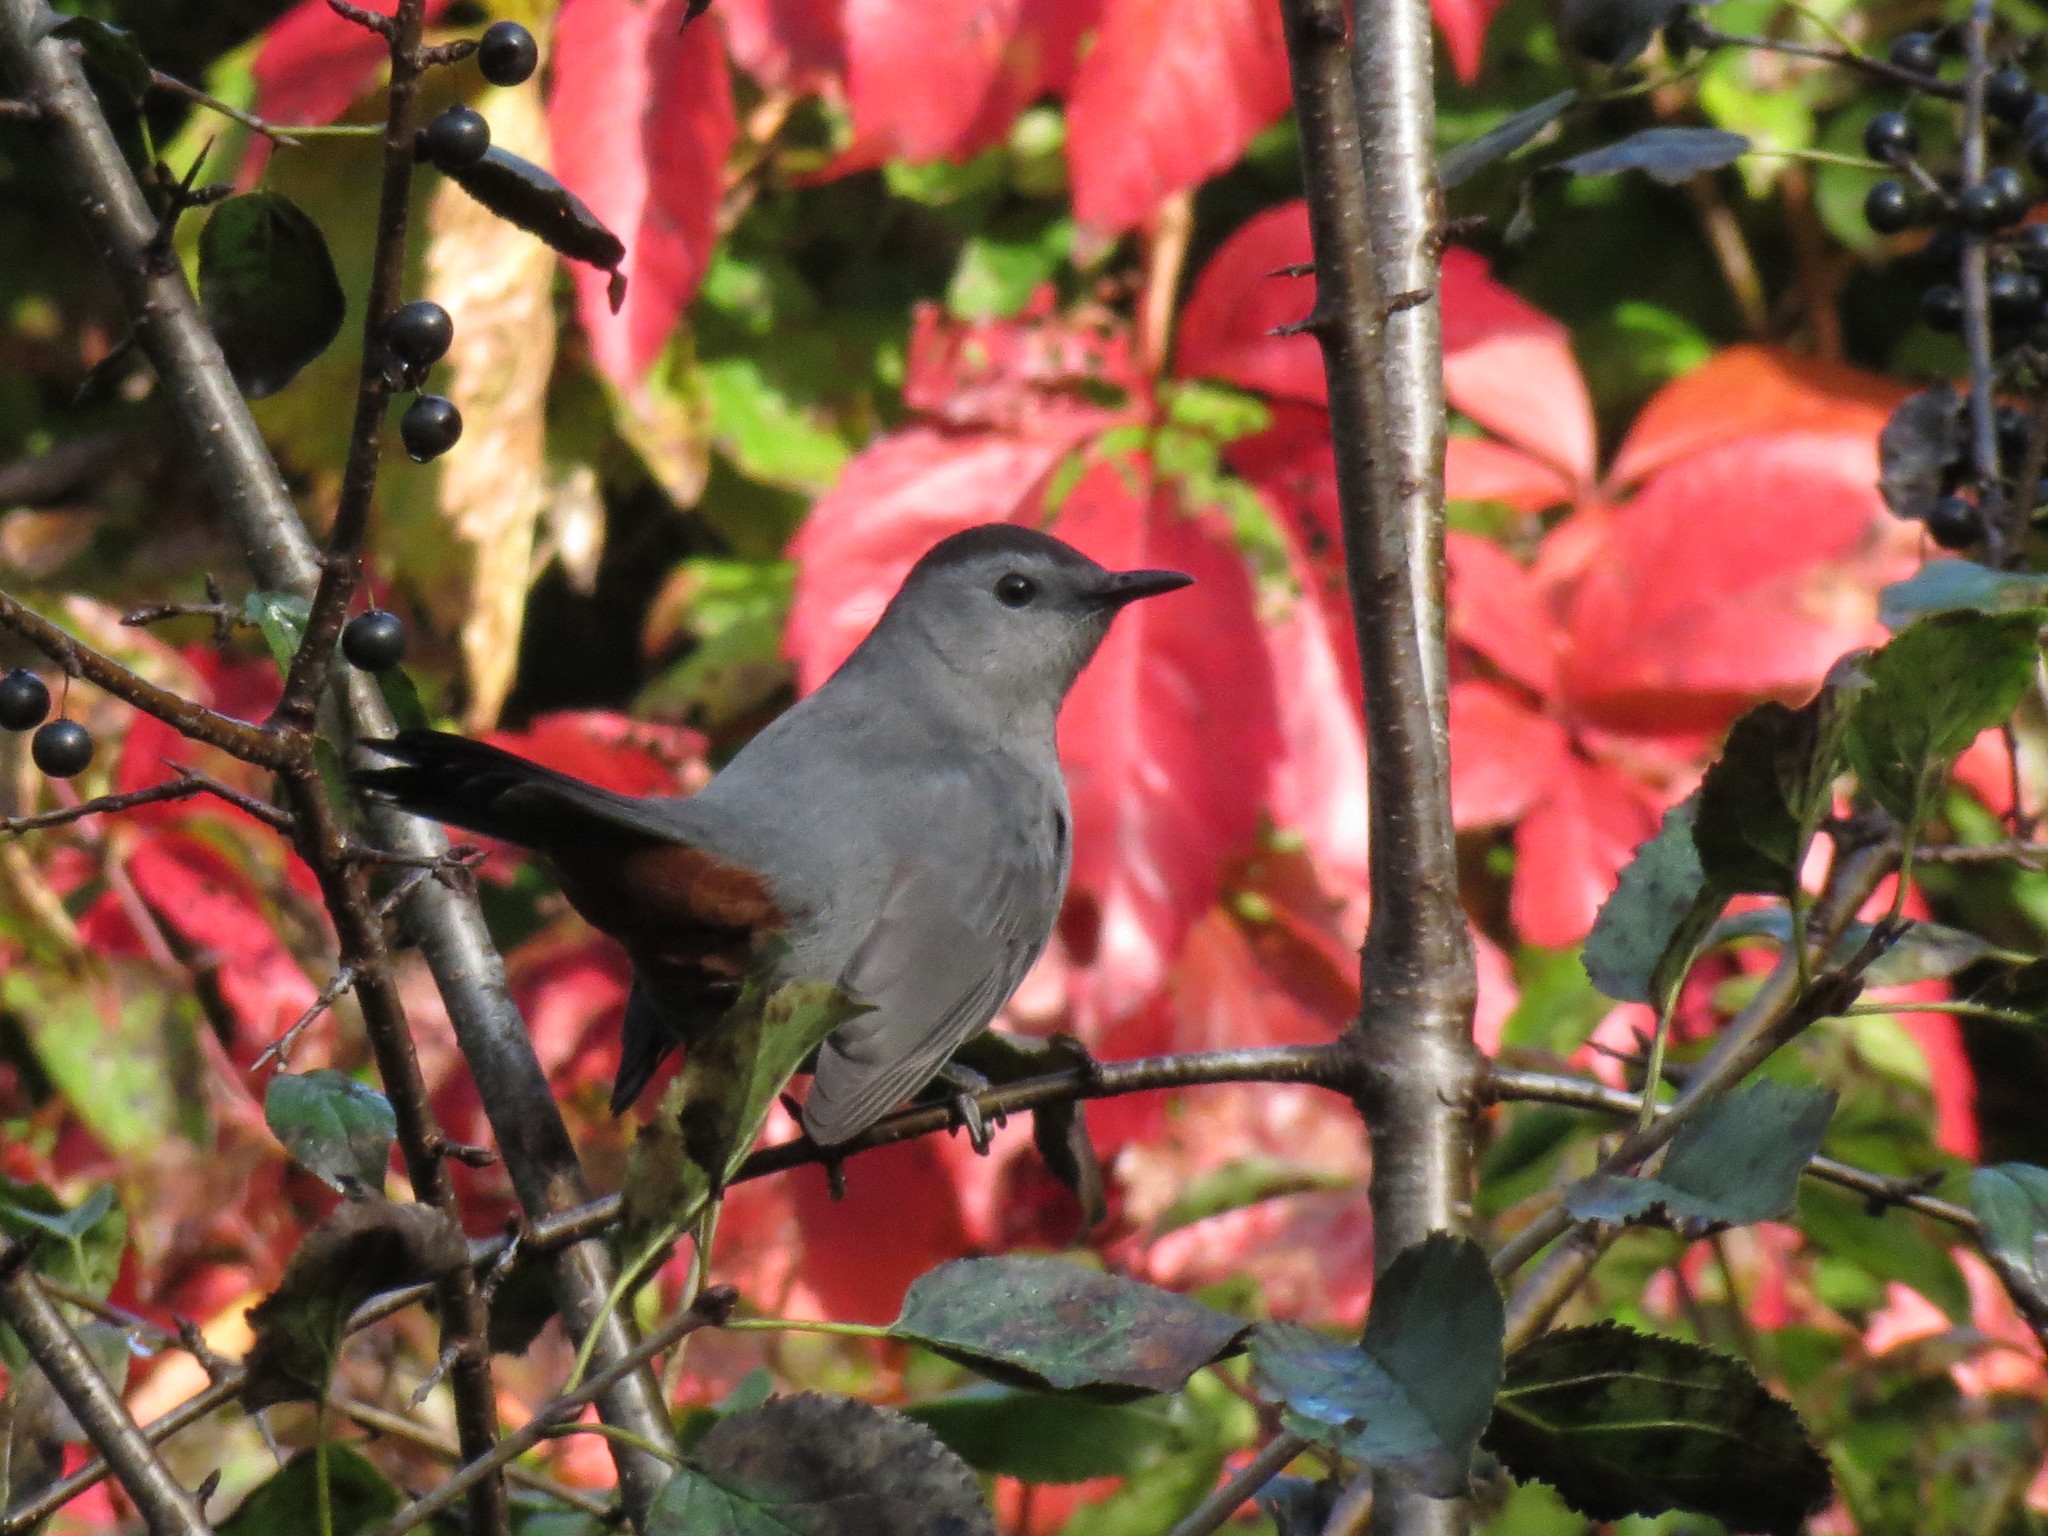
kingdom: Animalia
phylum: Chordata
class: Aves
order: Passeriformes
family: Mimidae
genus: Dumetella
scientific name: Dumetella carolinensis
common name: Gray catbird
